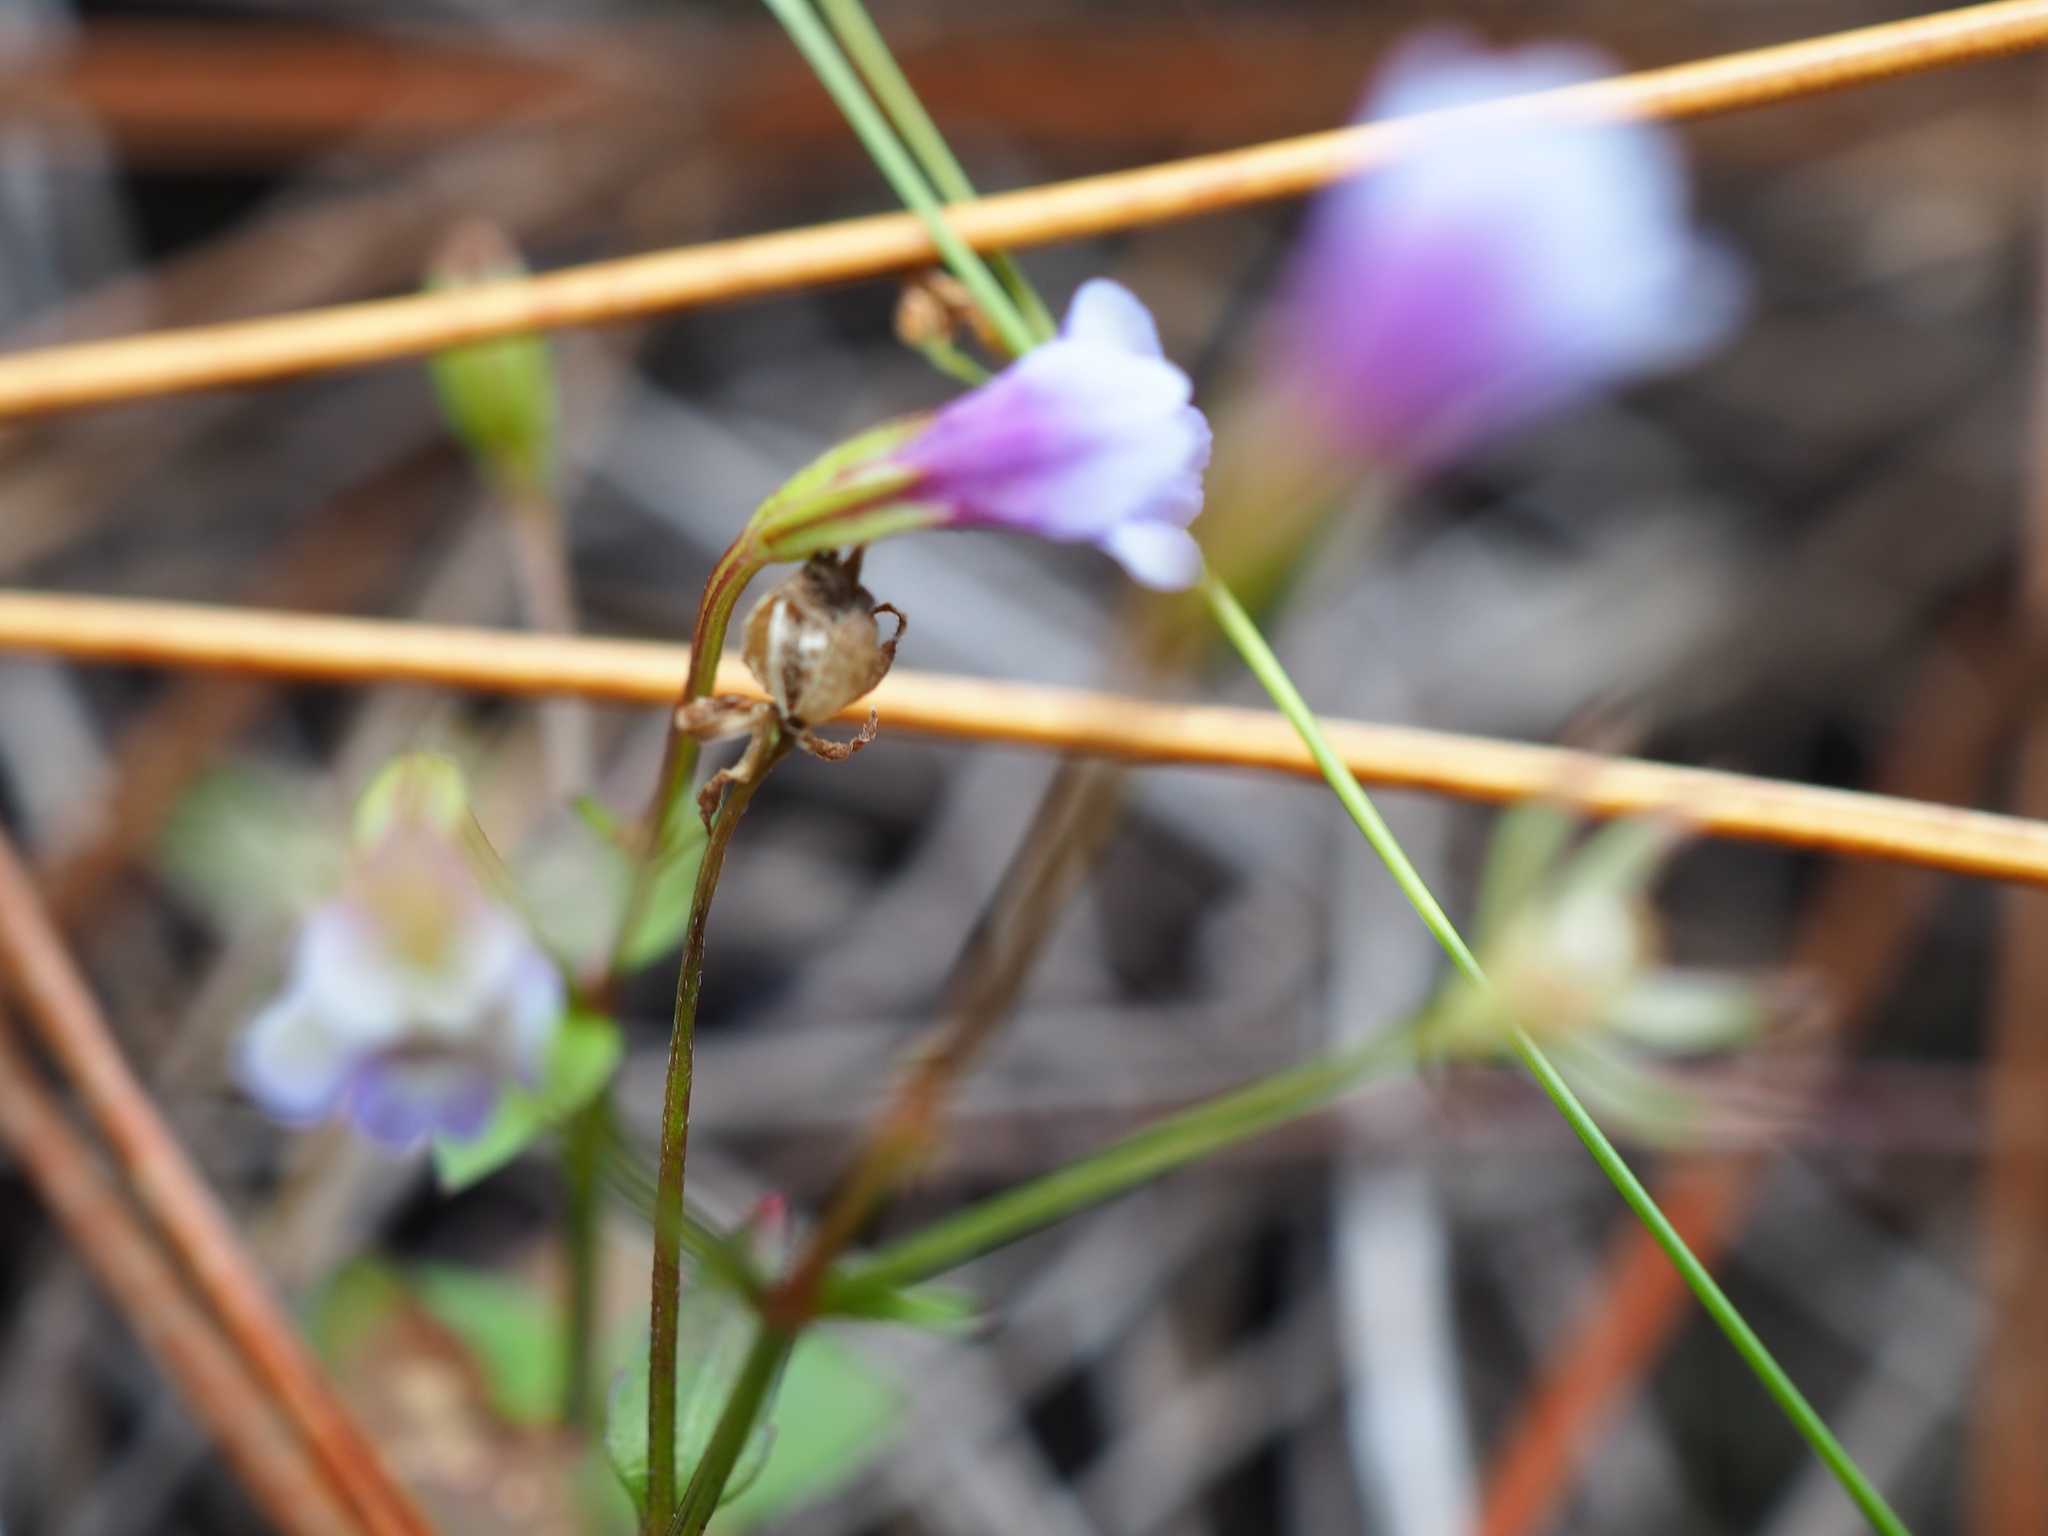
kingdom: Plantae
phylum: Tracheophyta
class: Magnoliopsida
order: Lamiales
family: Linderniaceae
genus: Torenia
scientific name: Torenia crustacea
